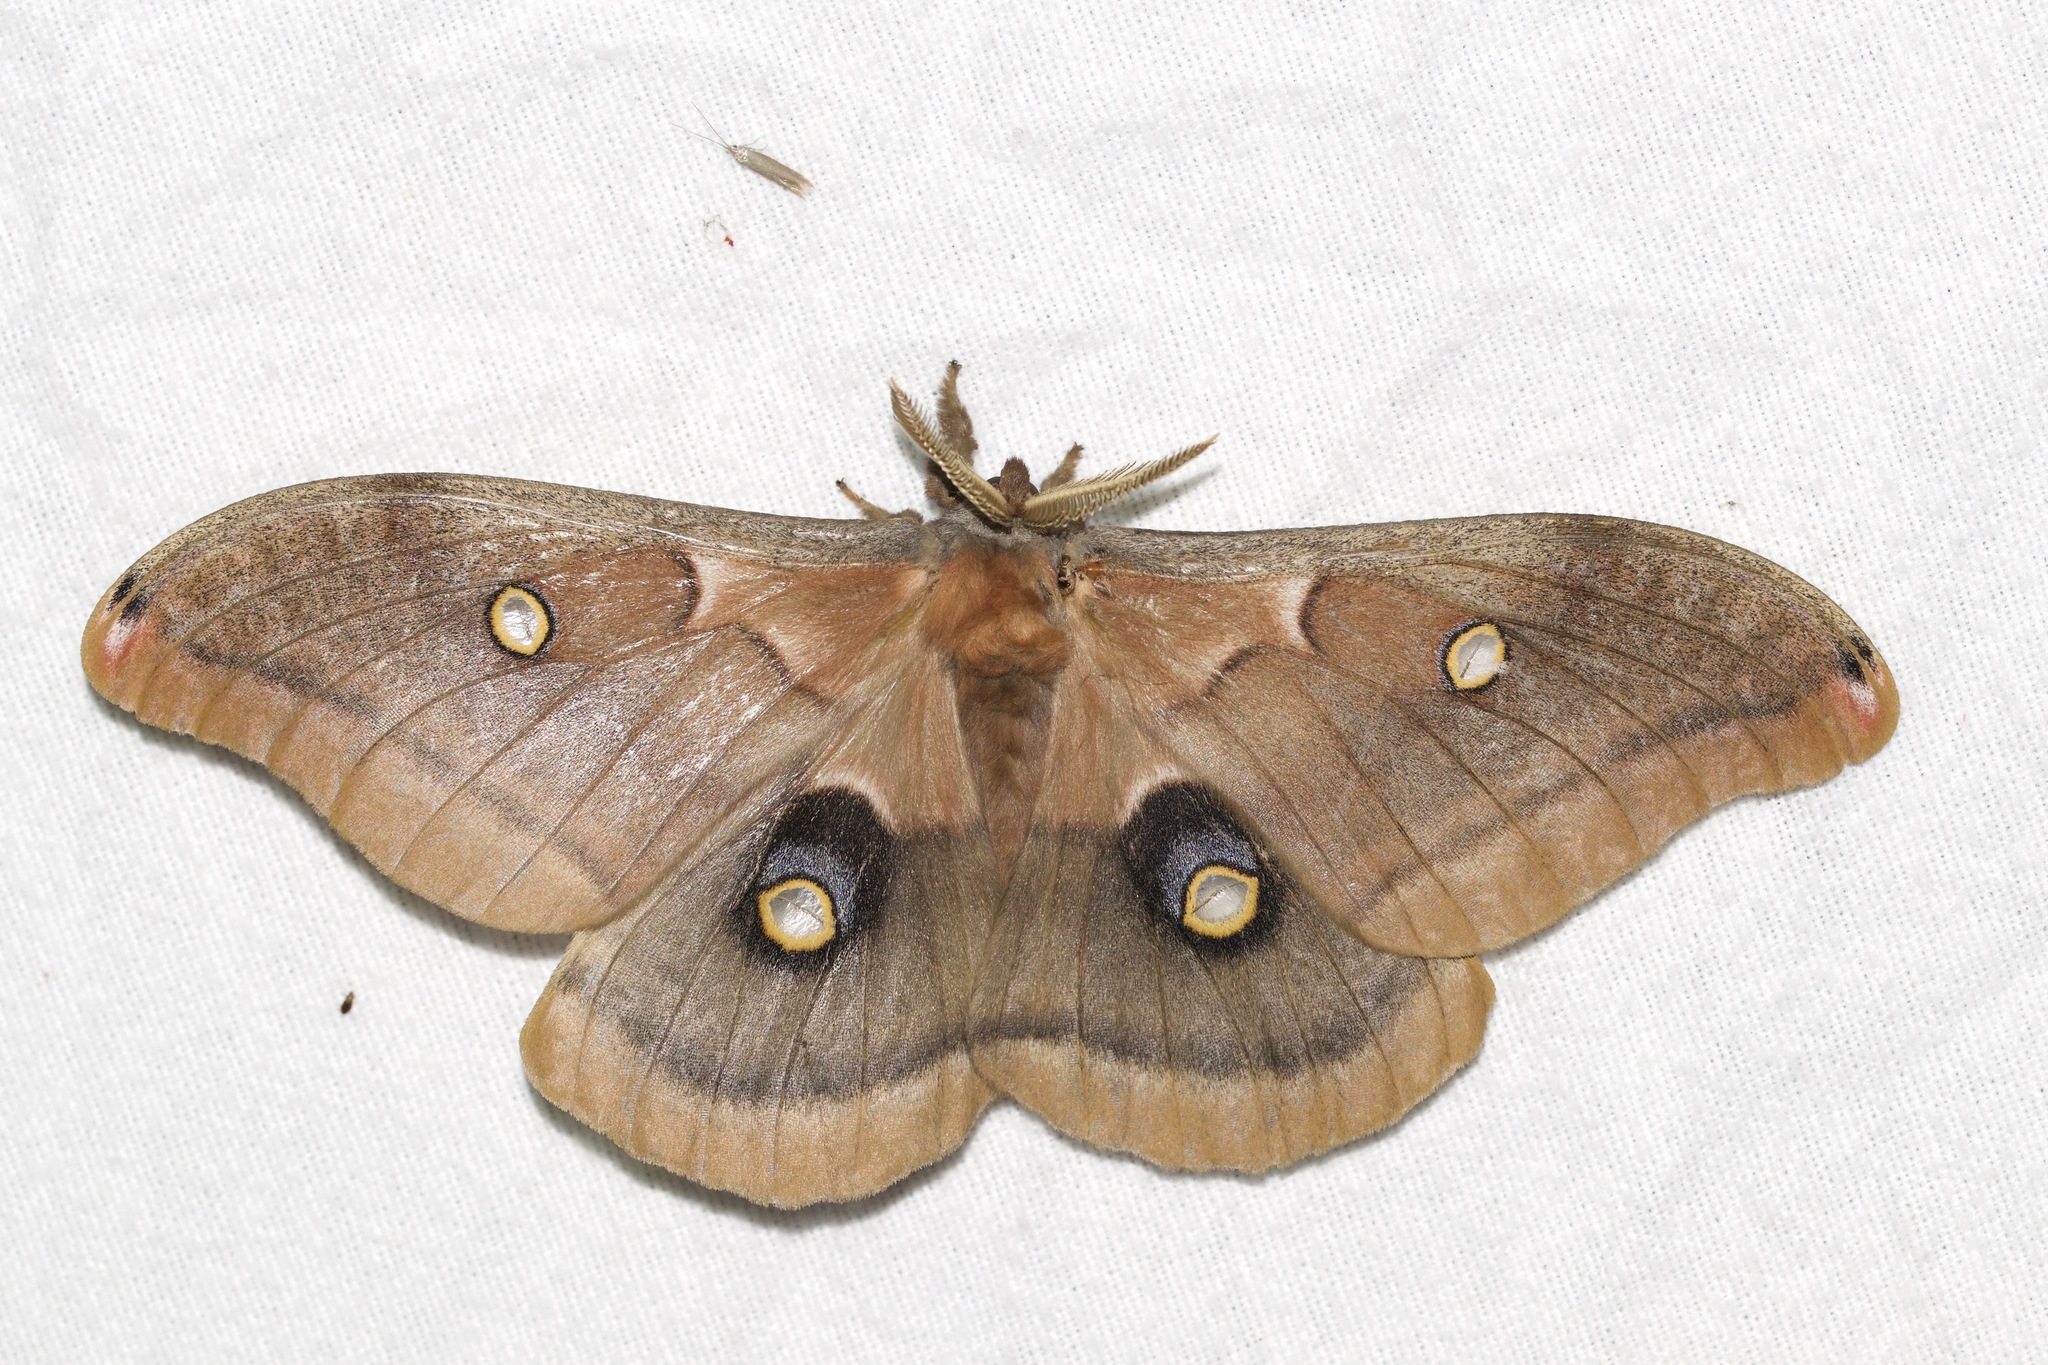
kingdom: Animalia
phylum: Arthropoda
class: Insecta
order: Lepidoptera
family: Saturniidae
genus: Antheraea
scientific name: Antheraea polyphemus
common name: Polyphemus moth
